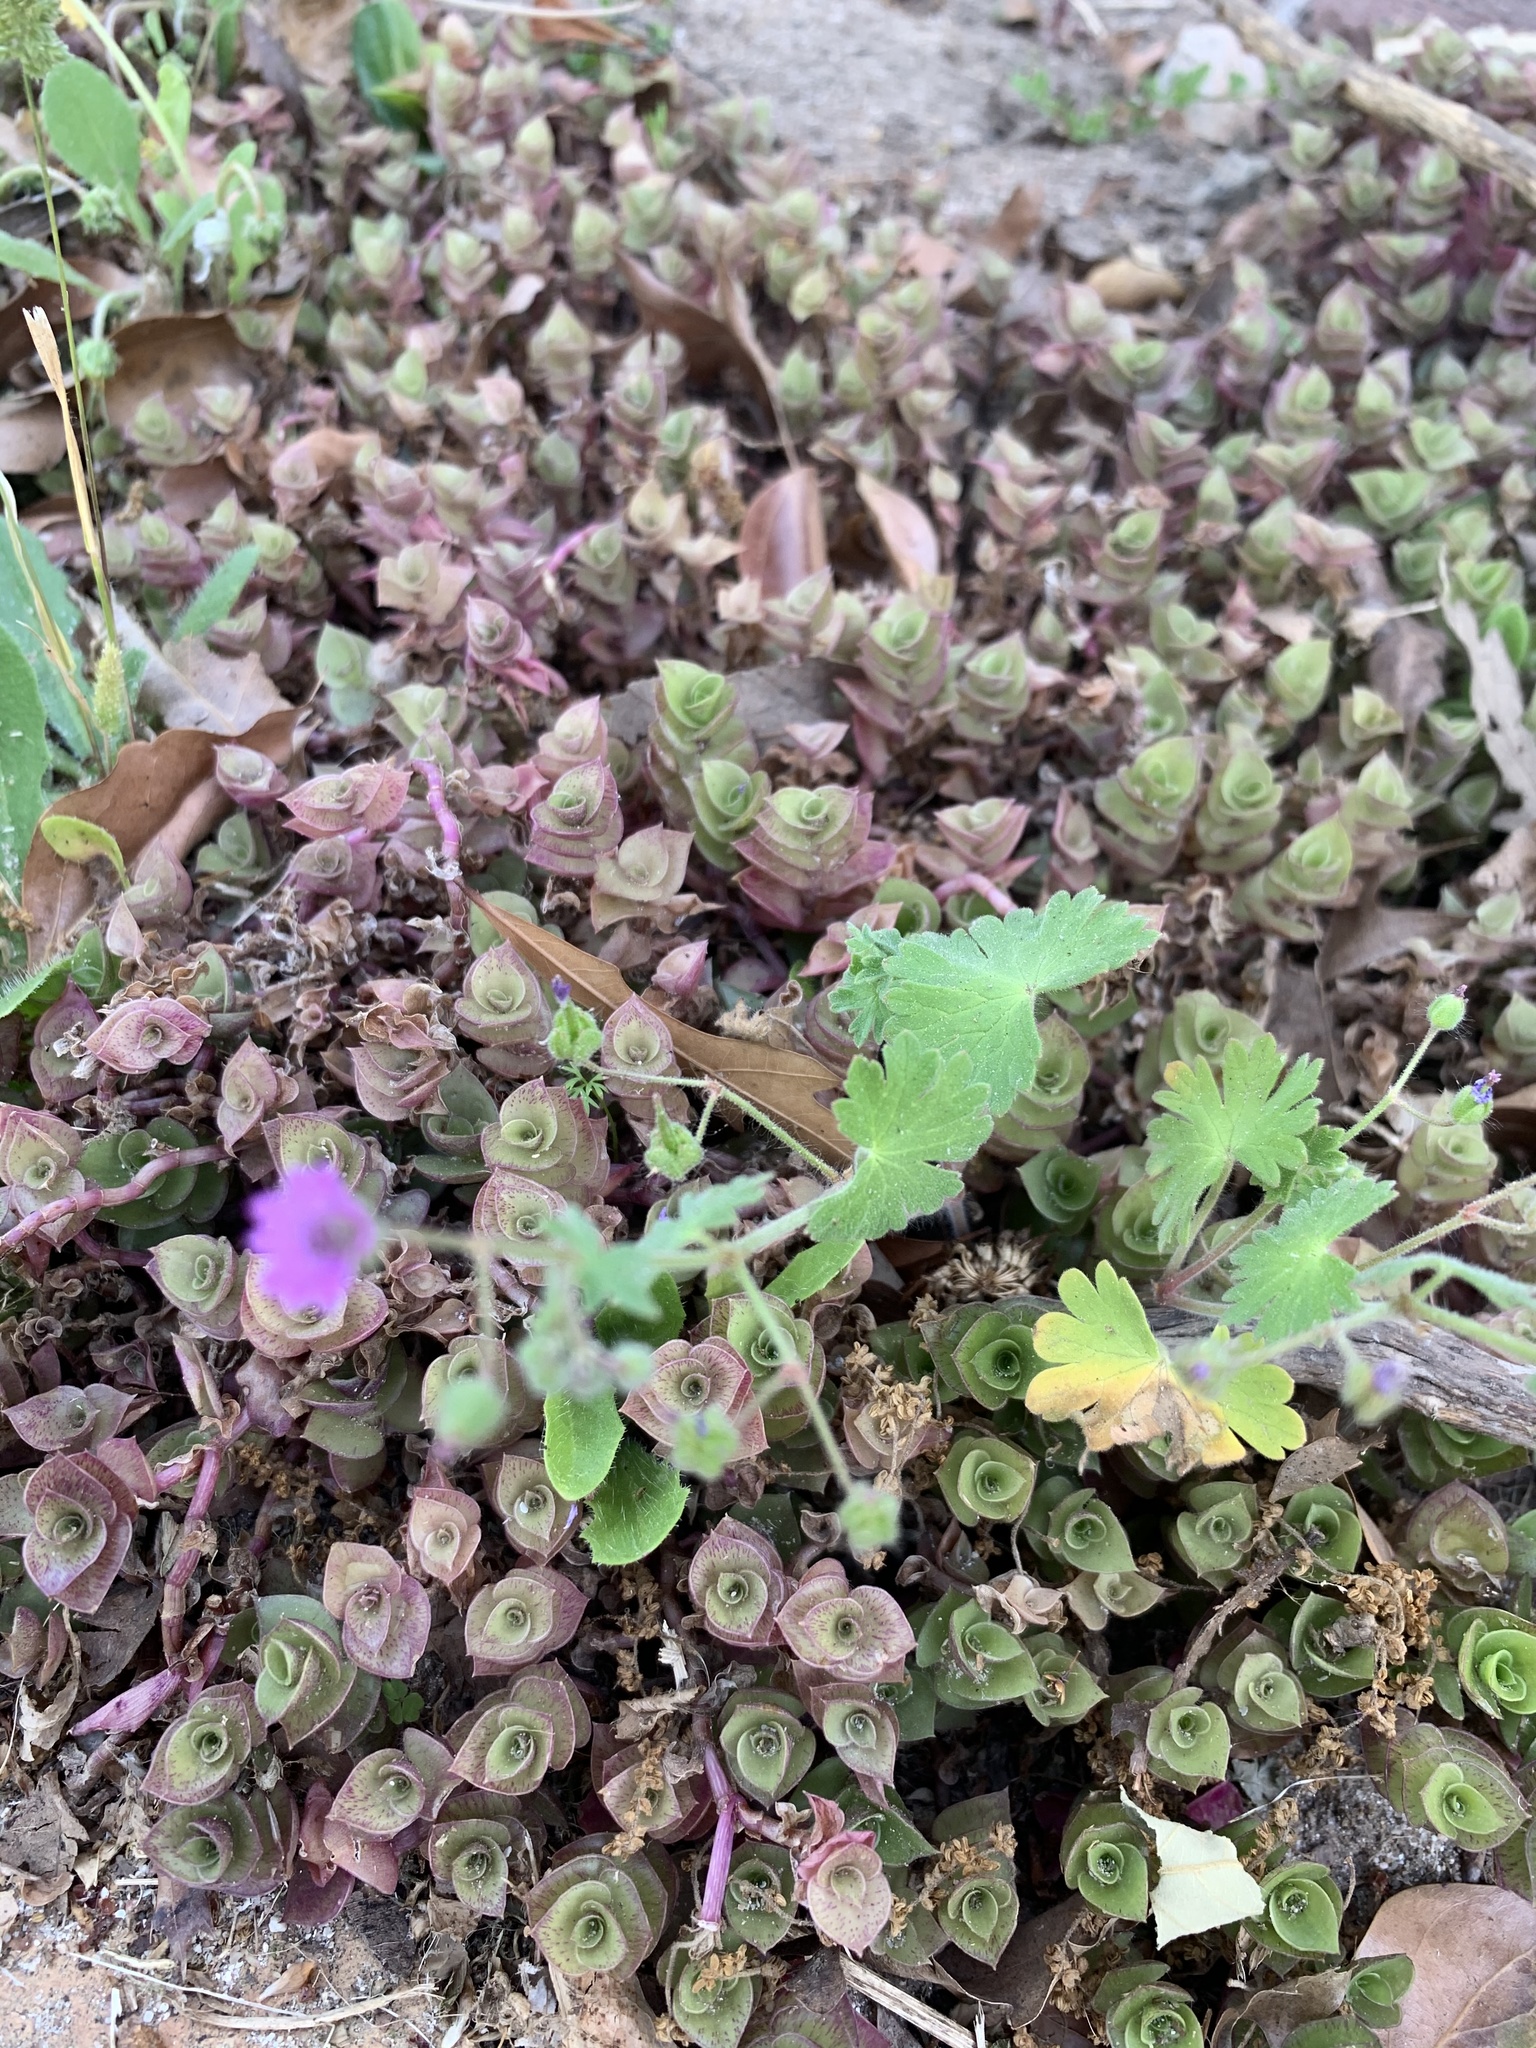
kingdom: Plantae
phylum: Tracheophyta
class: Magnoliopsida
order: Geraniales
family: Geraniaceae
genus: Geranium
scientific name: Geranium molle
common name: Dove's-foot crane's-bill
